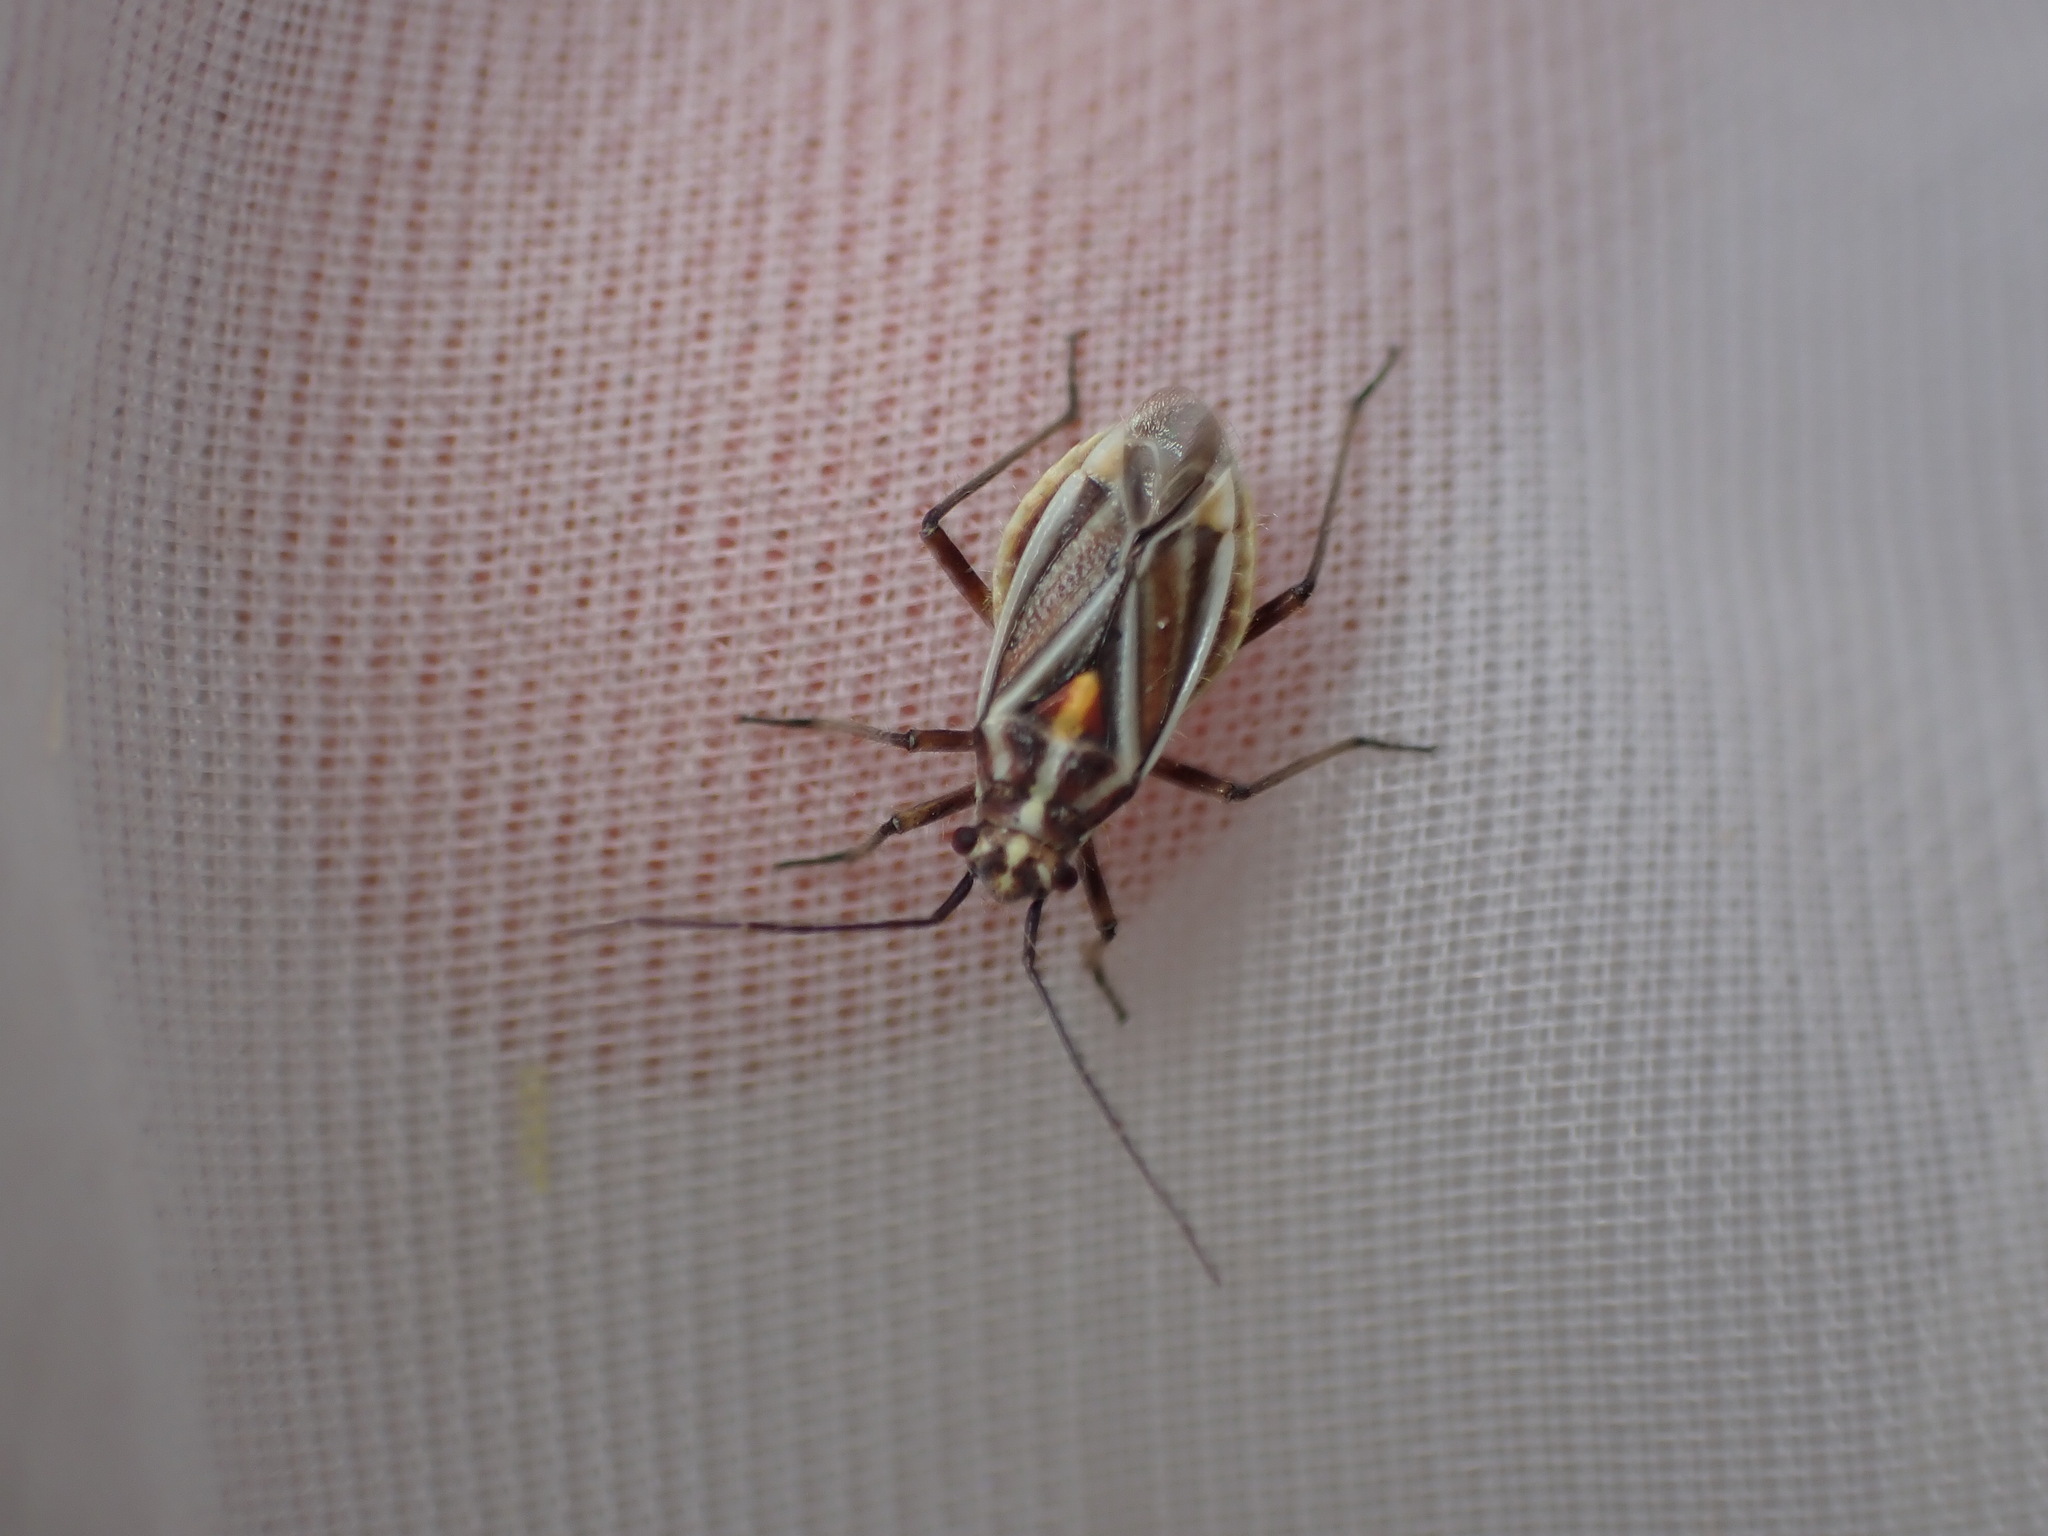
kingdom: Animalia
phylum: Arthropoda
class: Insecta
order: Hemiptera
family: Miridae
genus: Horistus
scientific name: Horistus orientalis
